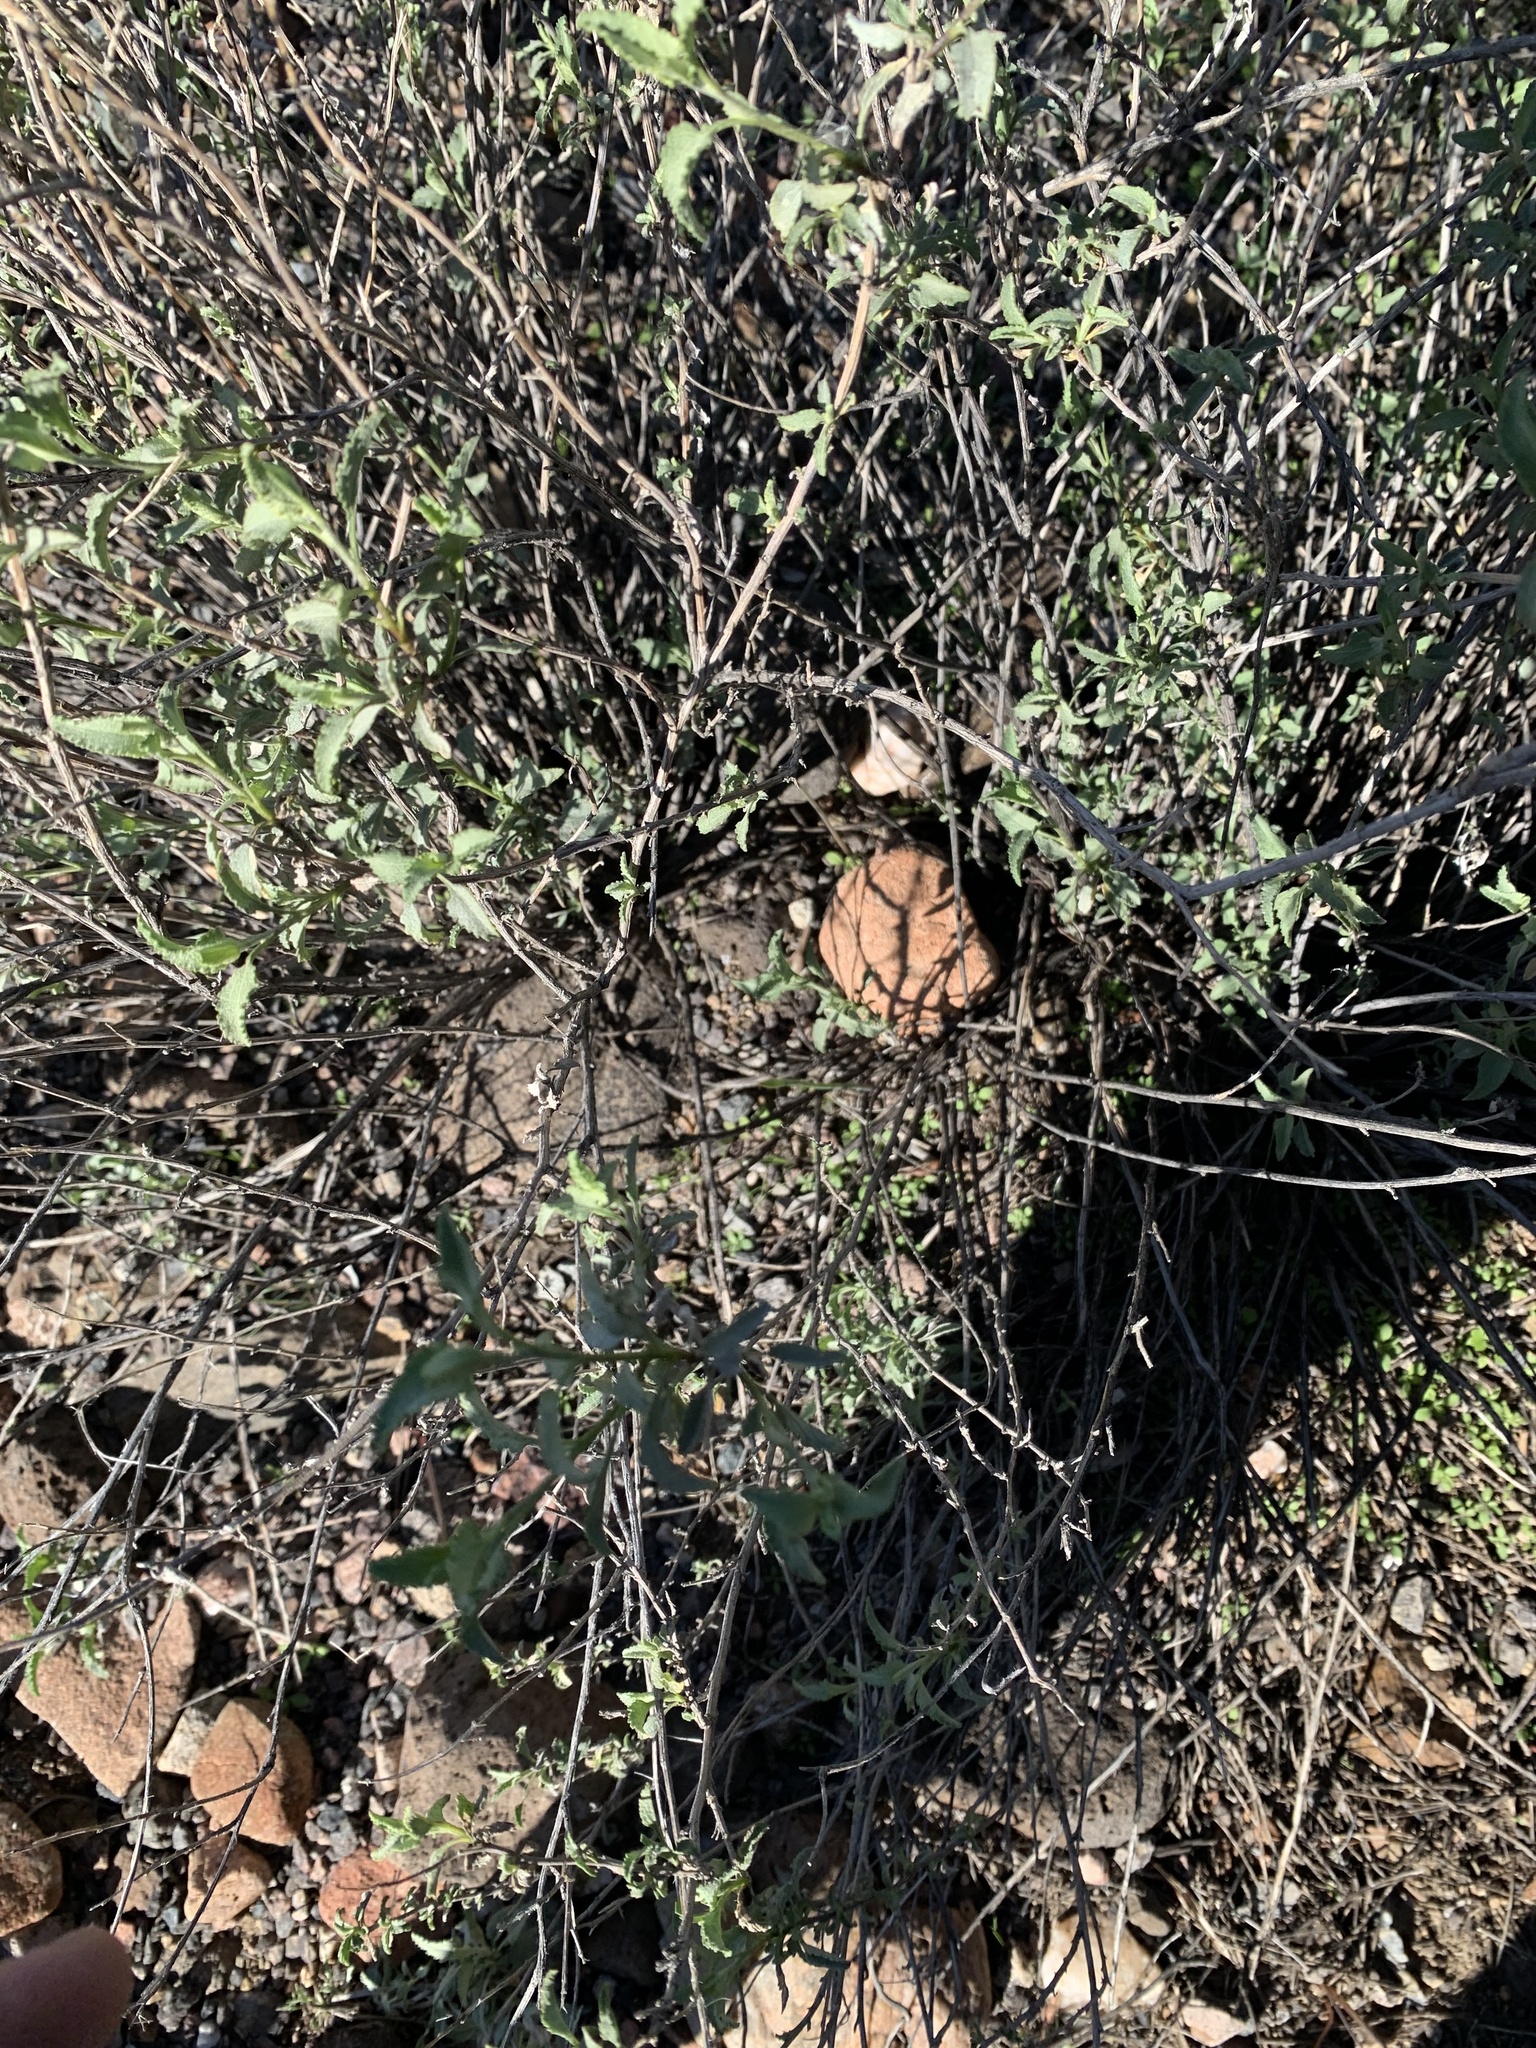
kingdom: Plantae
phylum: Tracheophyta
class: Magnoliopsida
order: Asterales
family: Asteraceae
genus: Ambrosia
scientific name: Ambrosia deltoidea
